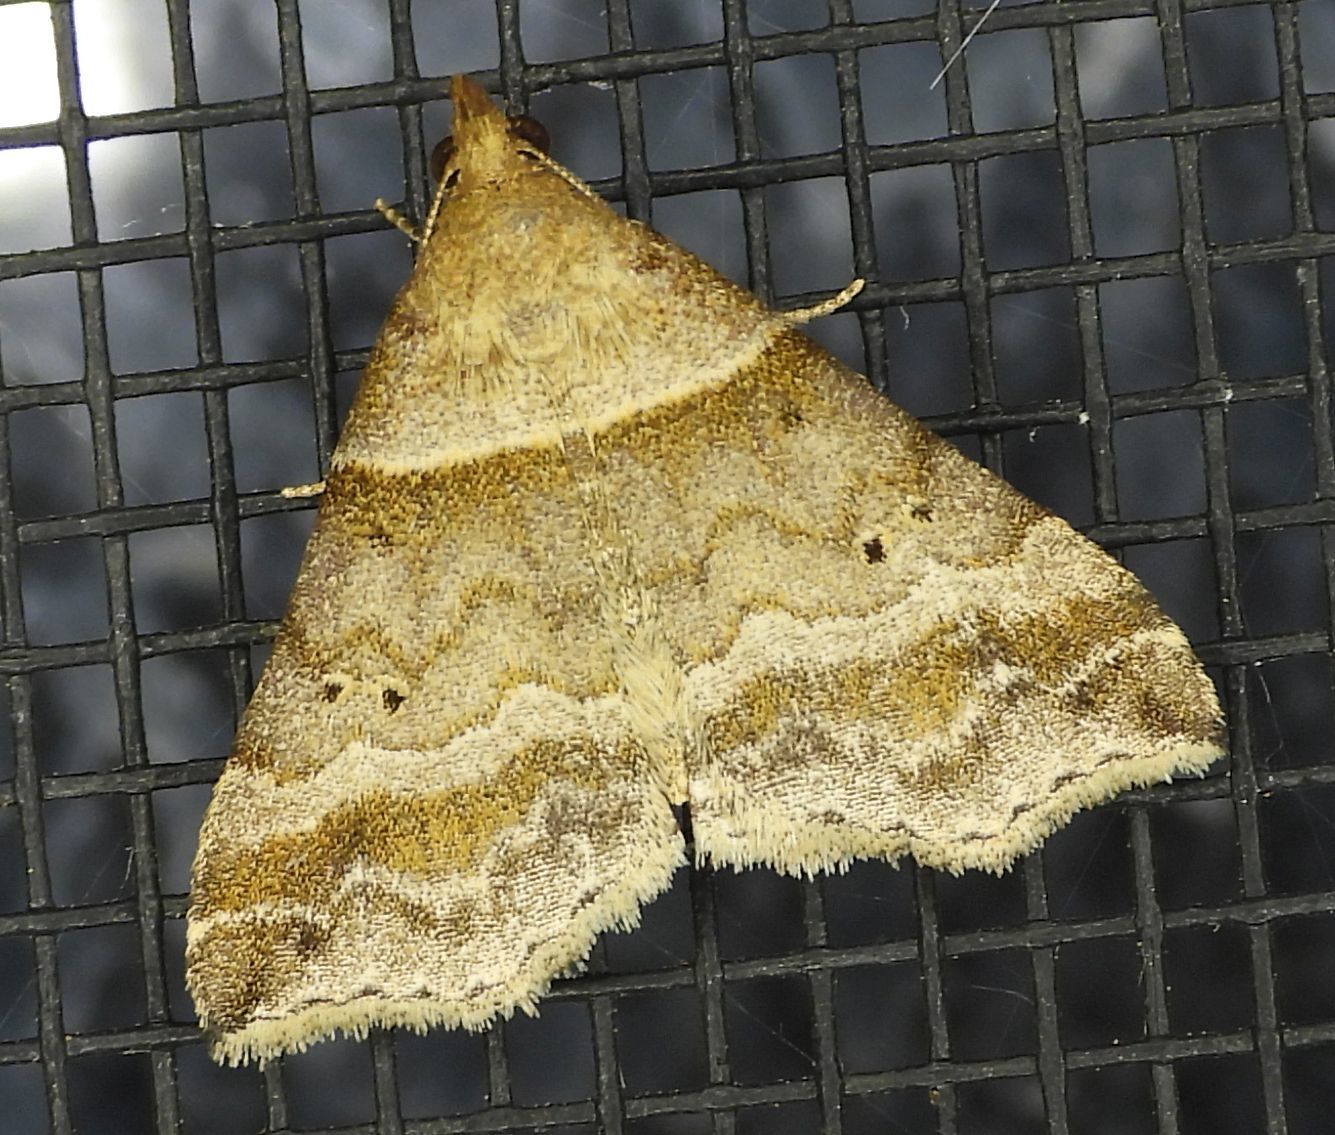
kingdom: Animalia
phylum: Arthropoda
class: Insecta
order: Lepidoptera
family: Erebidae
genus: Phaeolita
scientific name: Phaeolita pyramusalis
